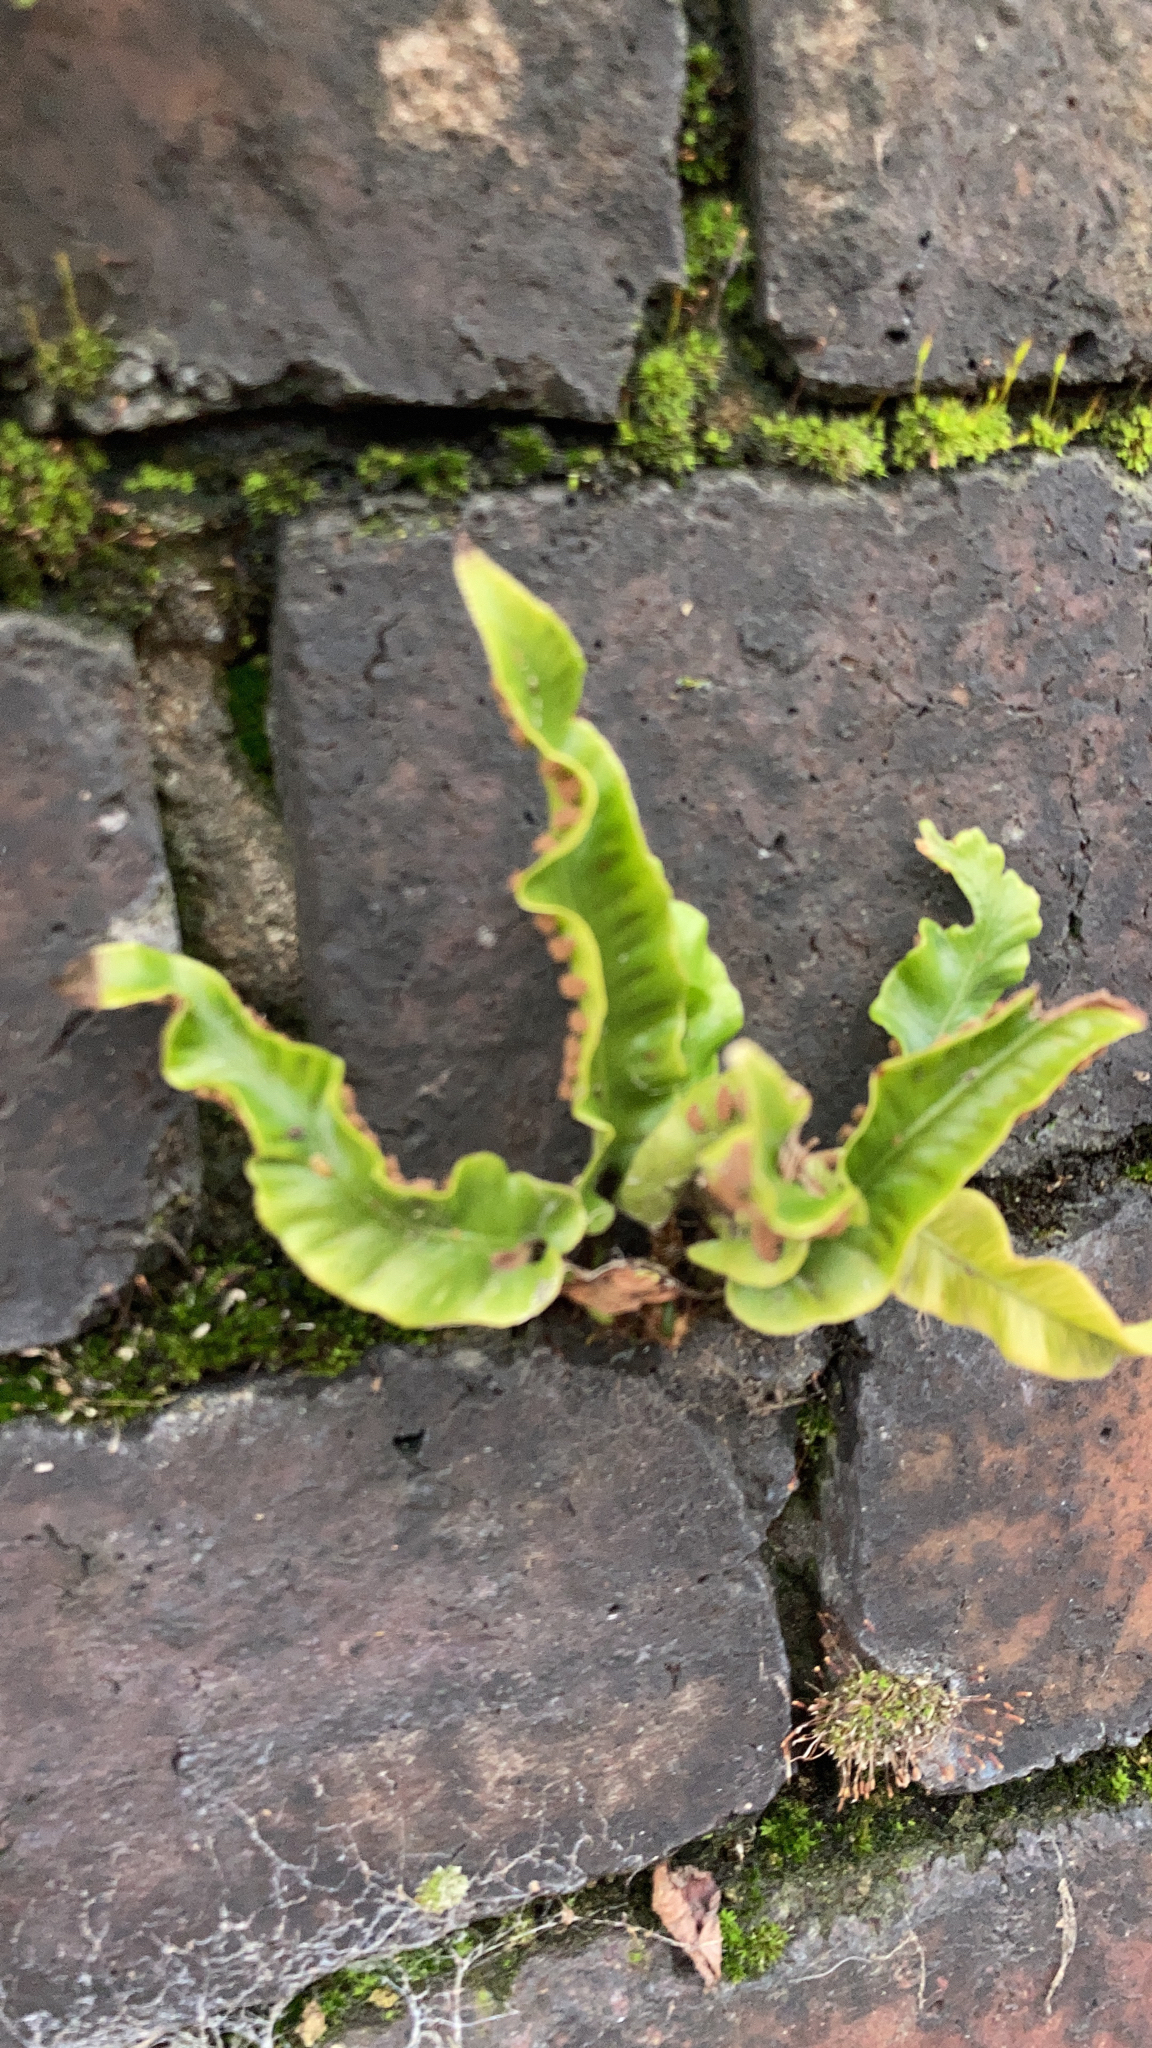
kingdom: Plantae
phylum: Tracheophyta
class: Polypodiopsida
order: Polypodiales
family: Aspleniaceae
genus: Asplenium
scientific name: Asplenium scolopendrium
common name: Hart's-tongue fern
